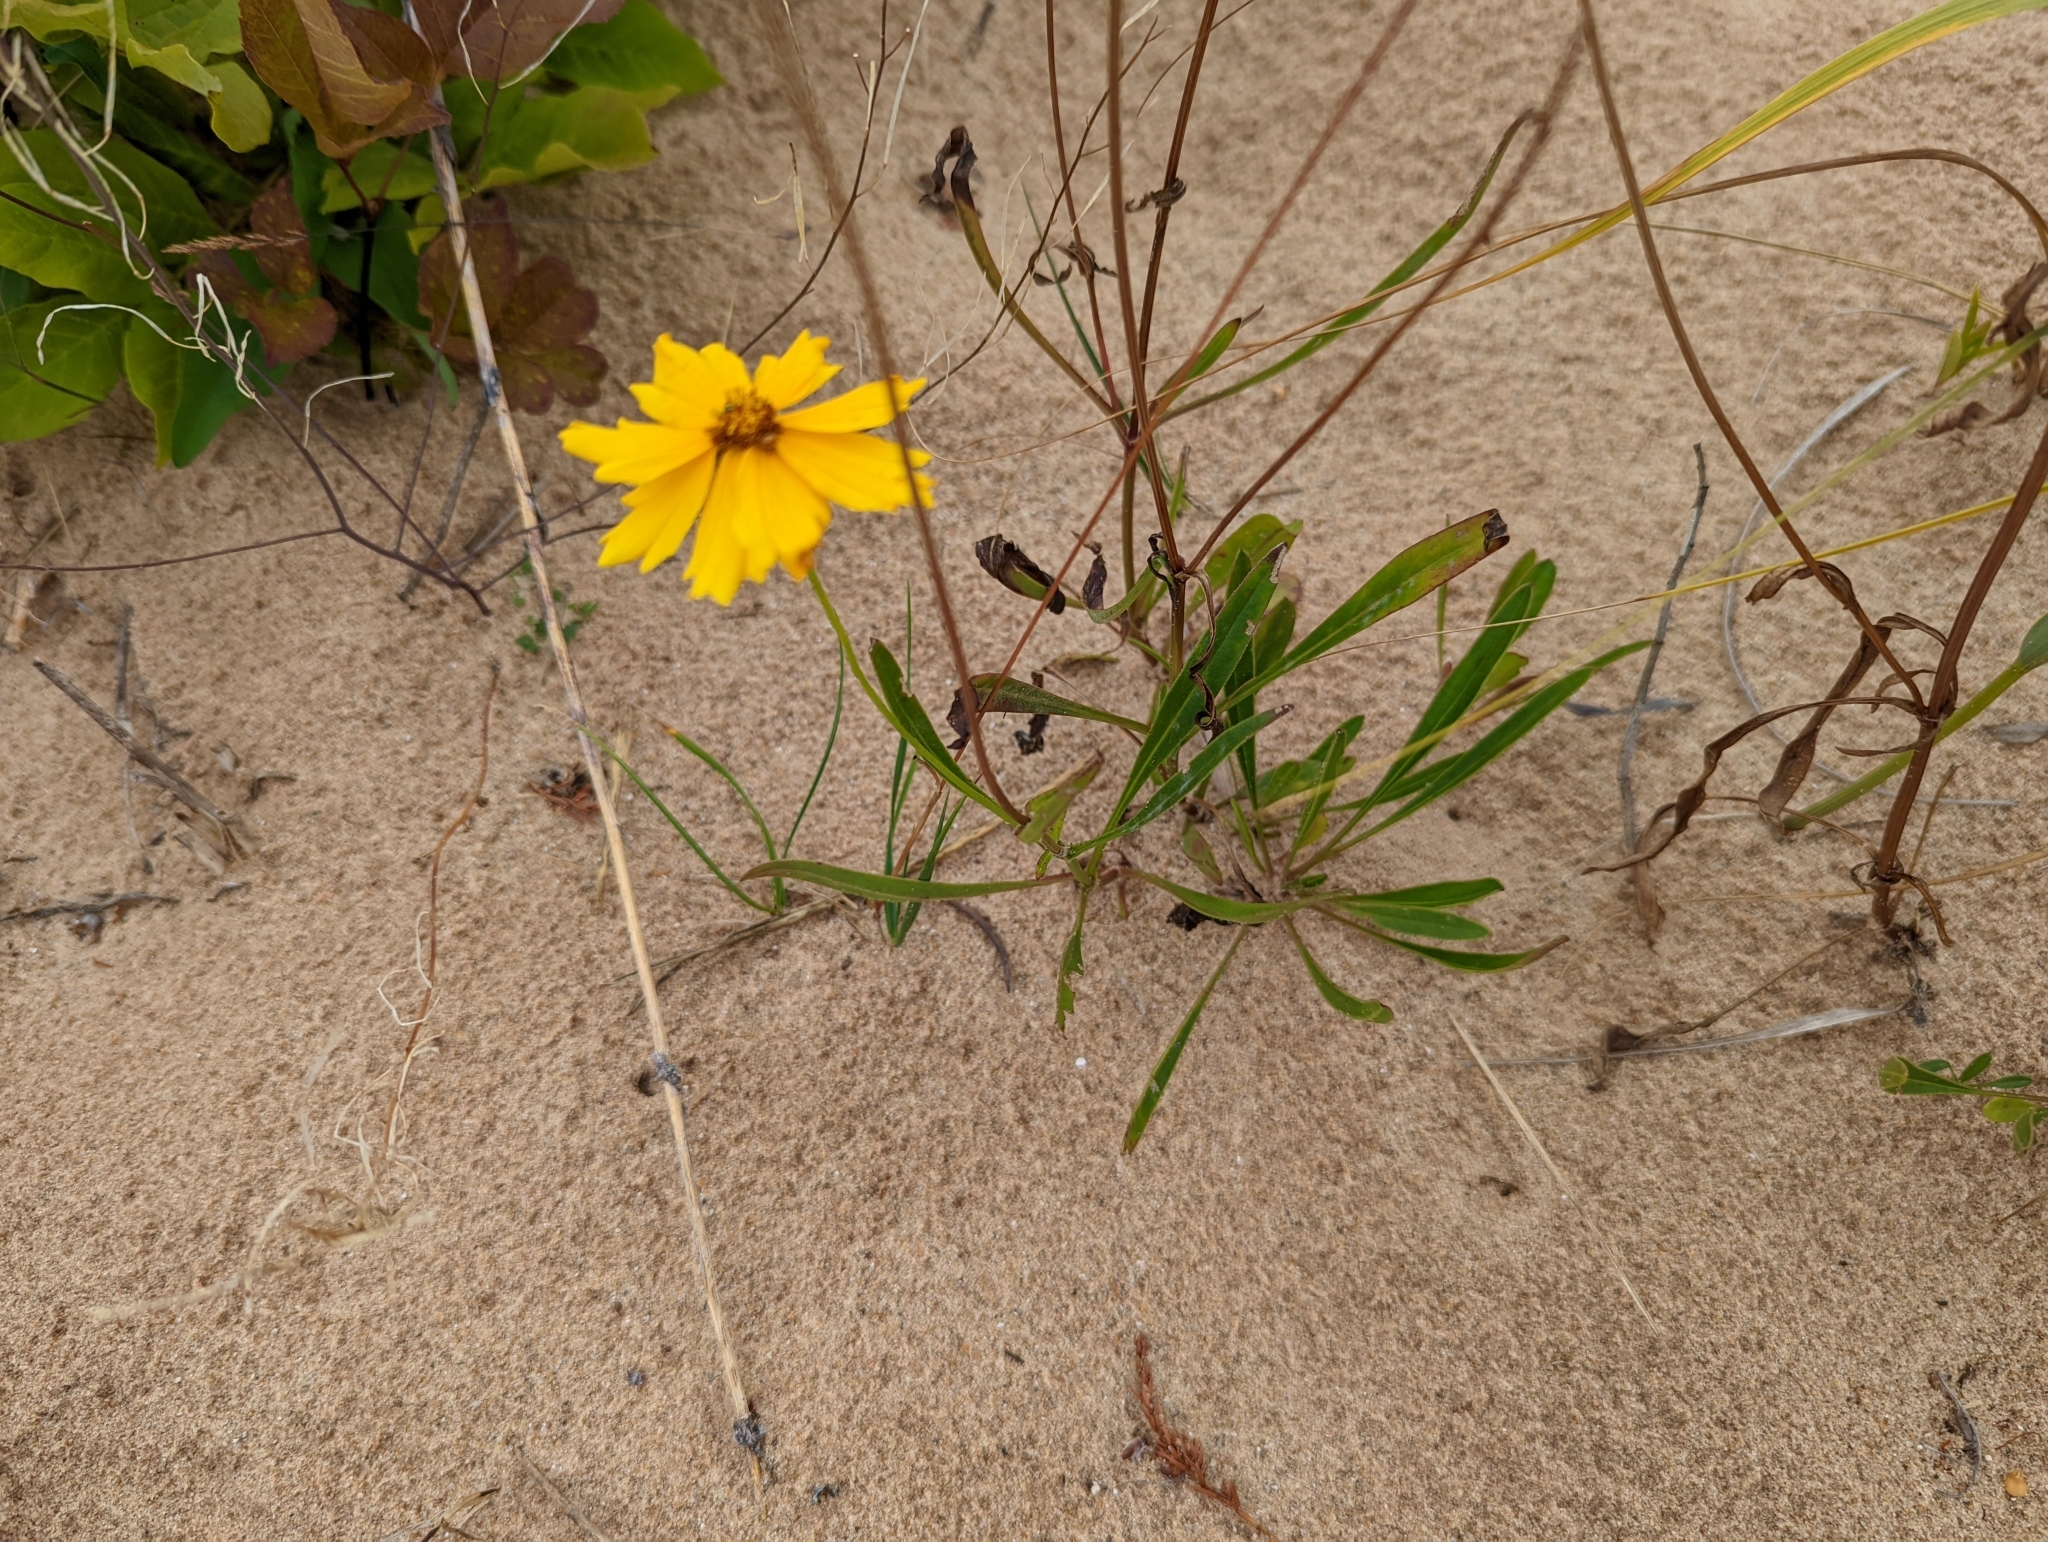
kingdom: Plantae
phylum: Tracheophyta
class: Magnoliopsida
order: Asterales
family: Asteraceae
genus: Coreopsis
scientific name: Coreopsis lanceolata
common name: Garden coreopsis
